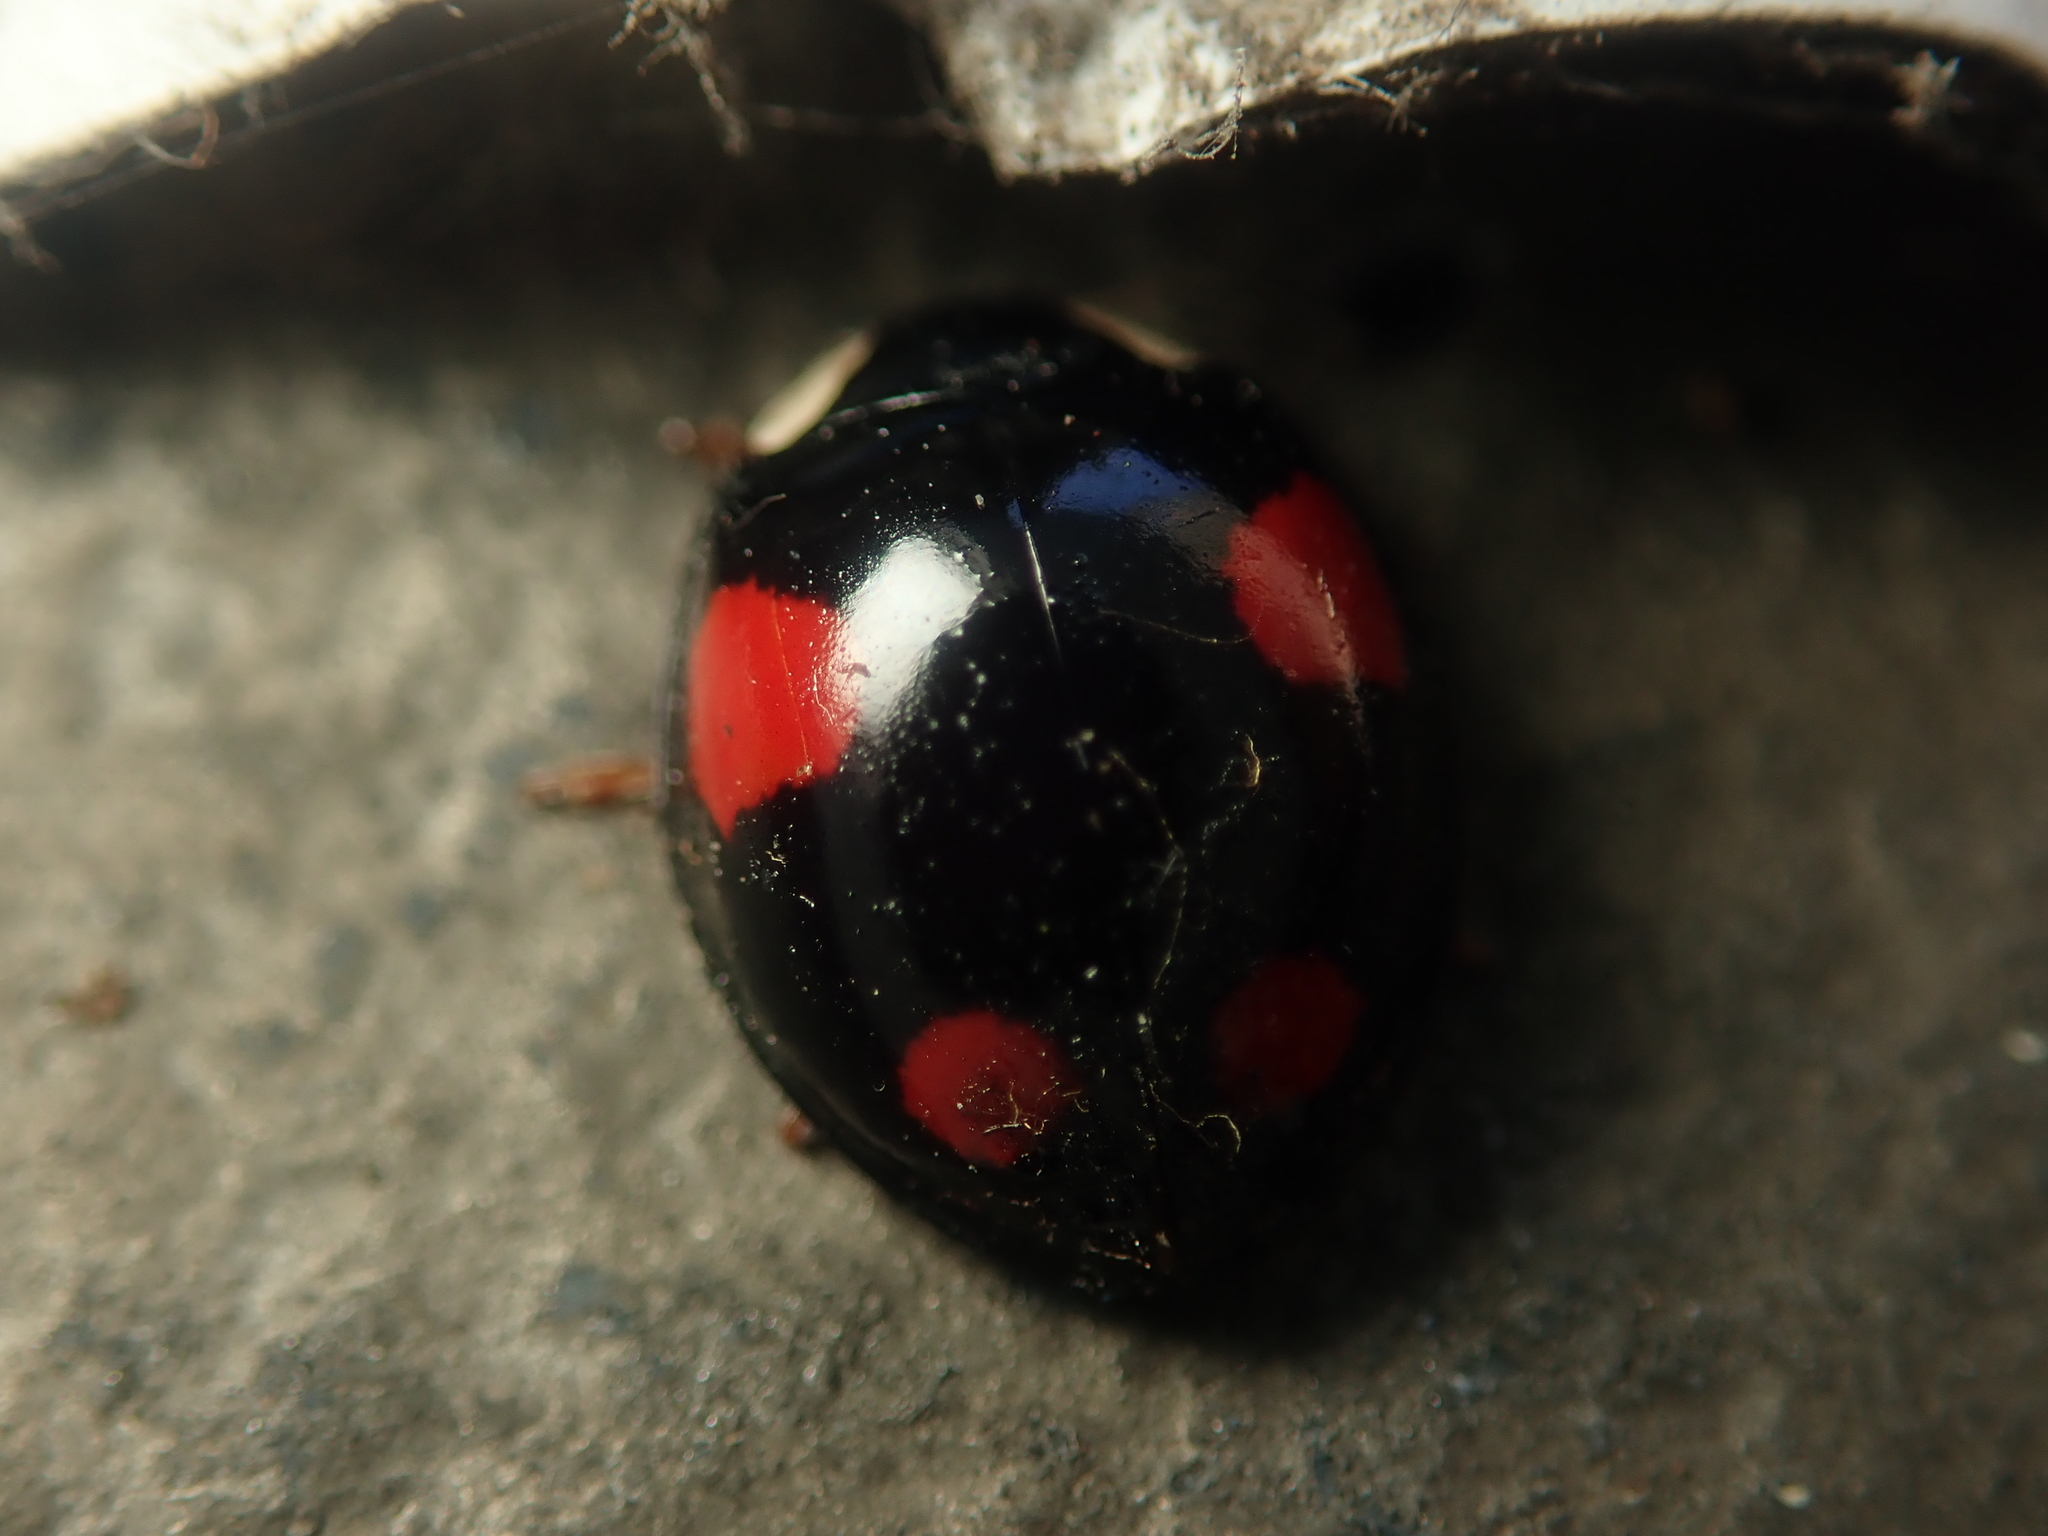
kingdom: Animalia
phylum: Arthropoda
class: Insecta
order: Coleoptera
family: Coccinellidae
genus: Harmonia
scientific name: Harmonia axyridis
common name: Harlequin ladybird
